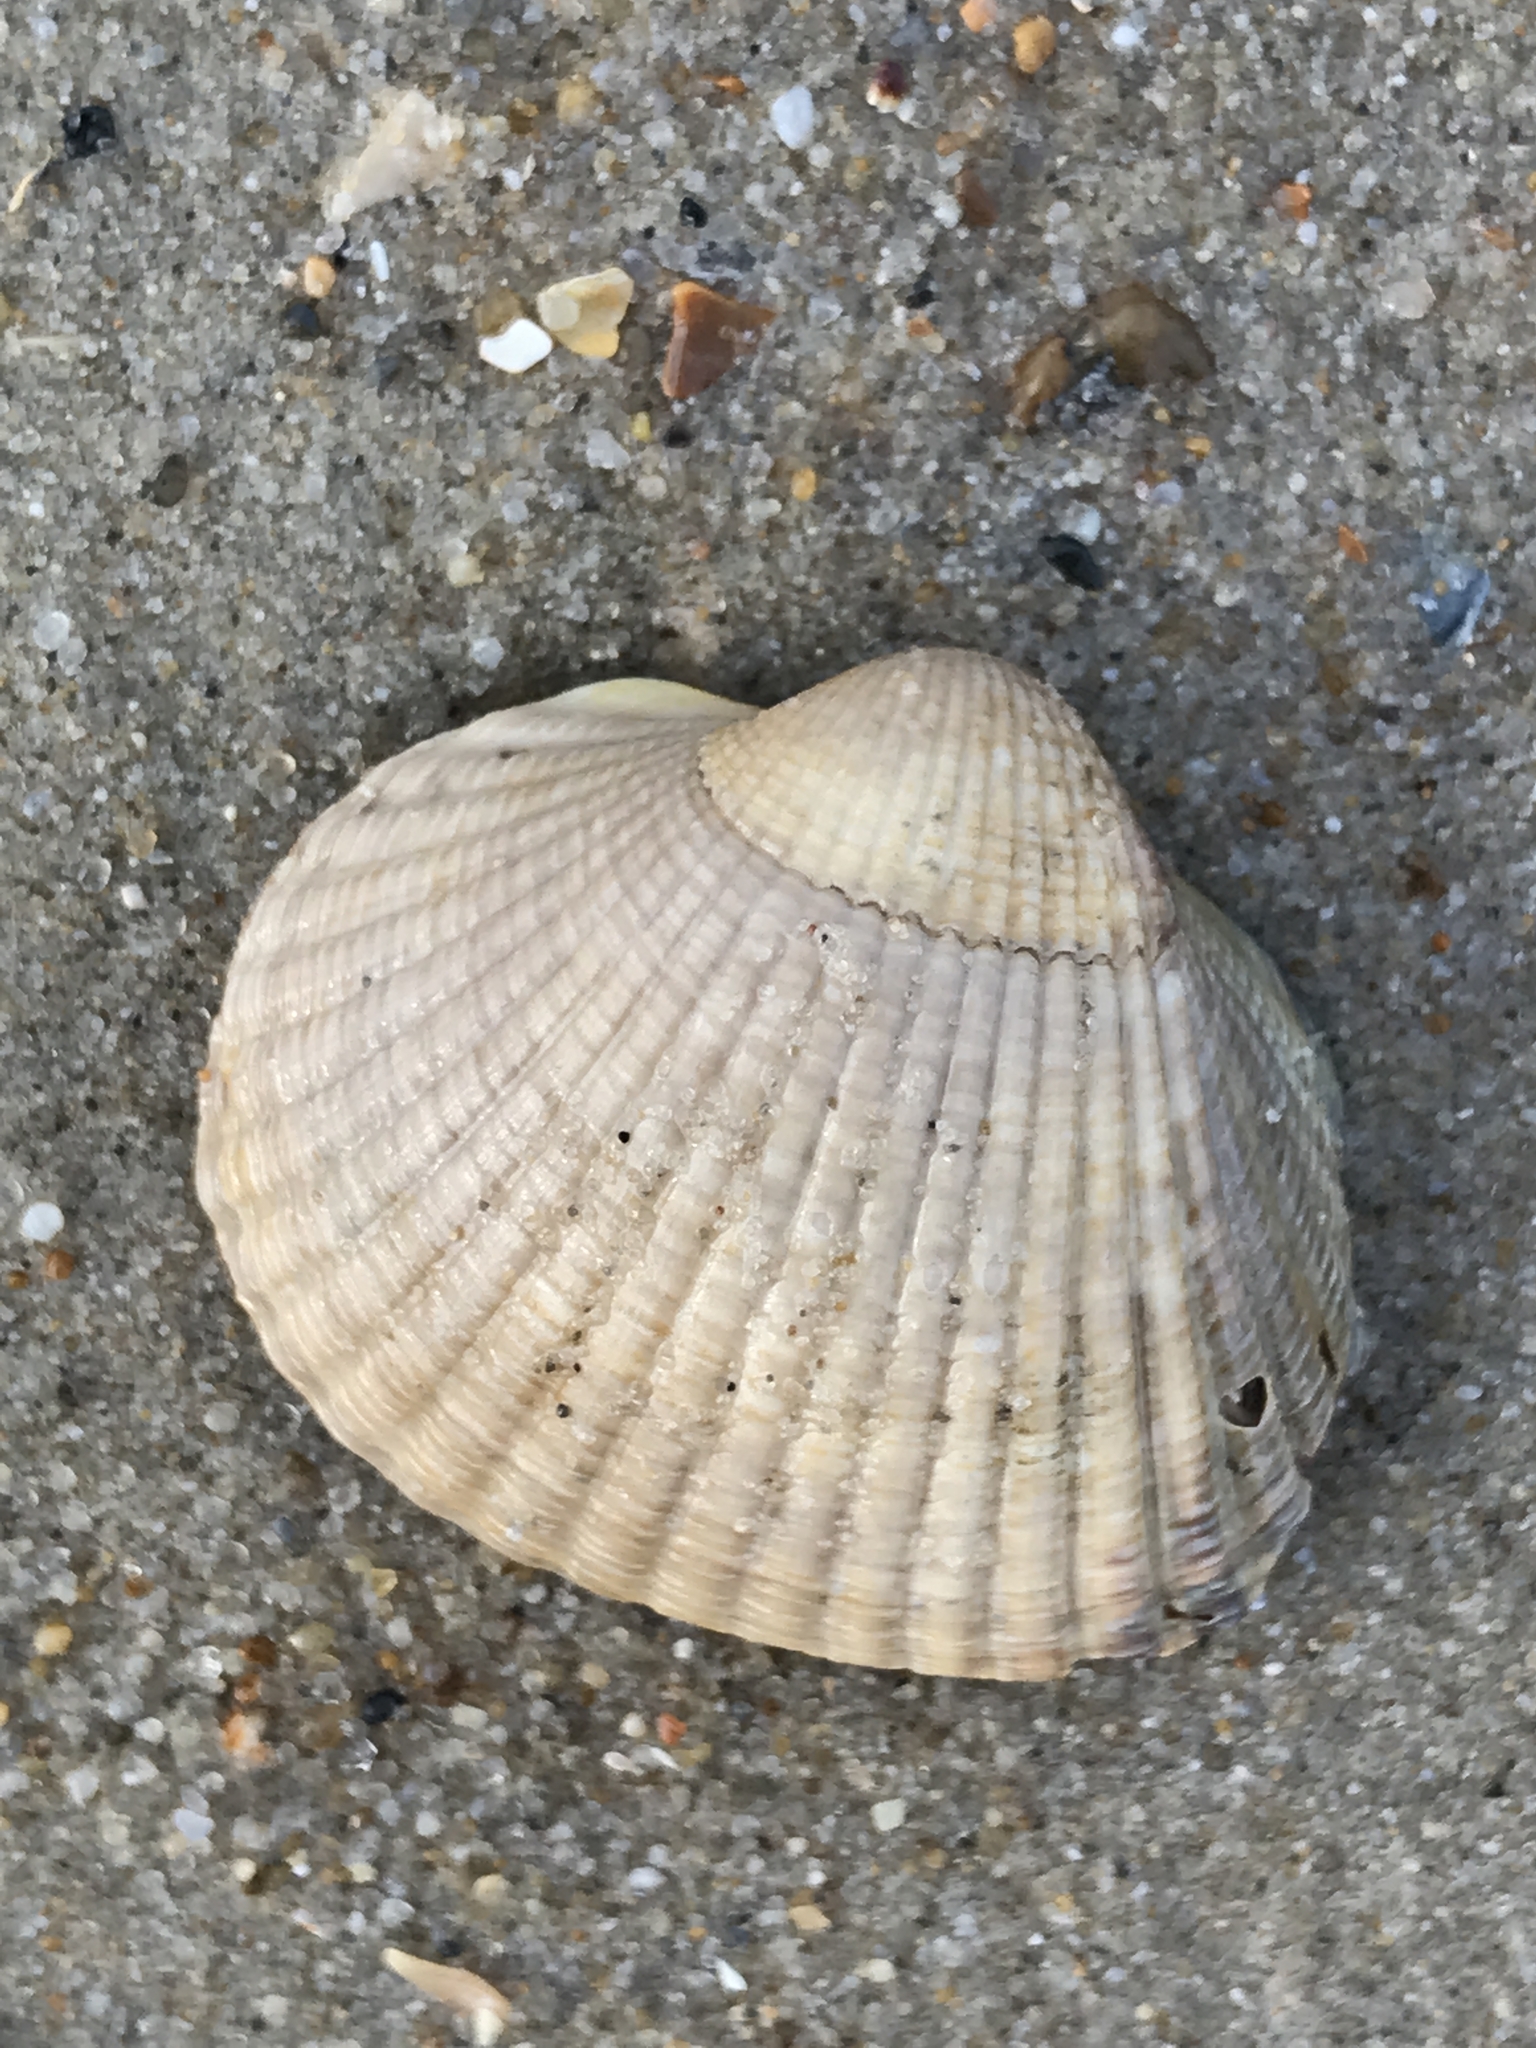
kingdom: Animalia
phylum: Mollusca
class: Bivalvia
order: Cardiida
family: Cardiidae
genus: Cerastoderma
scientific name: Cerastoderma edule
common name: Common cockle
